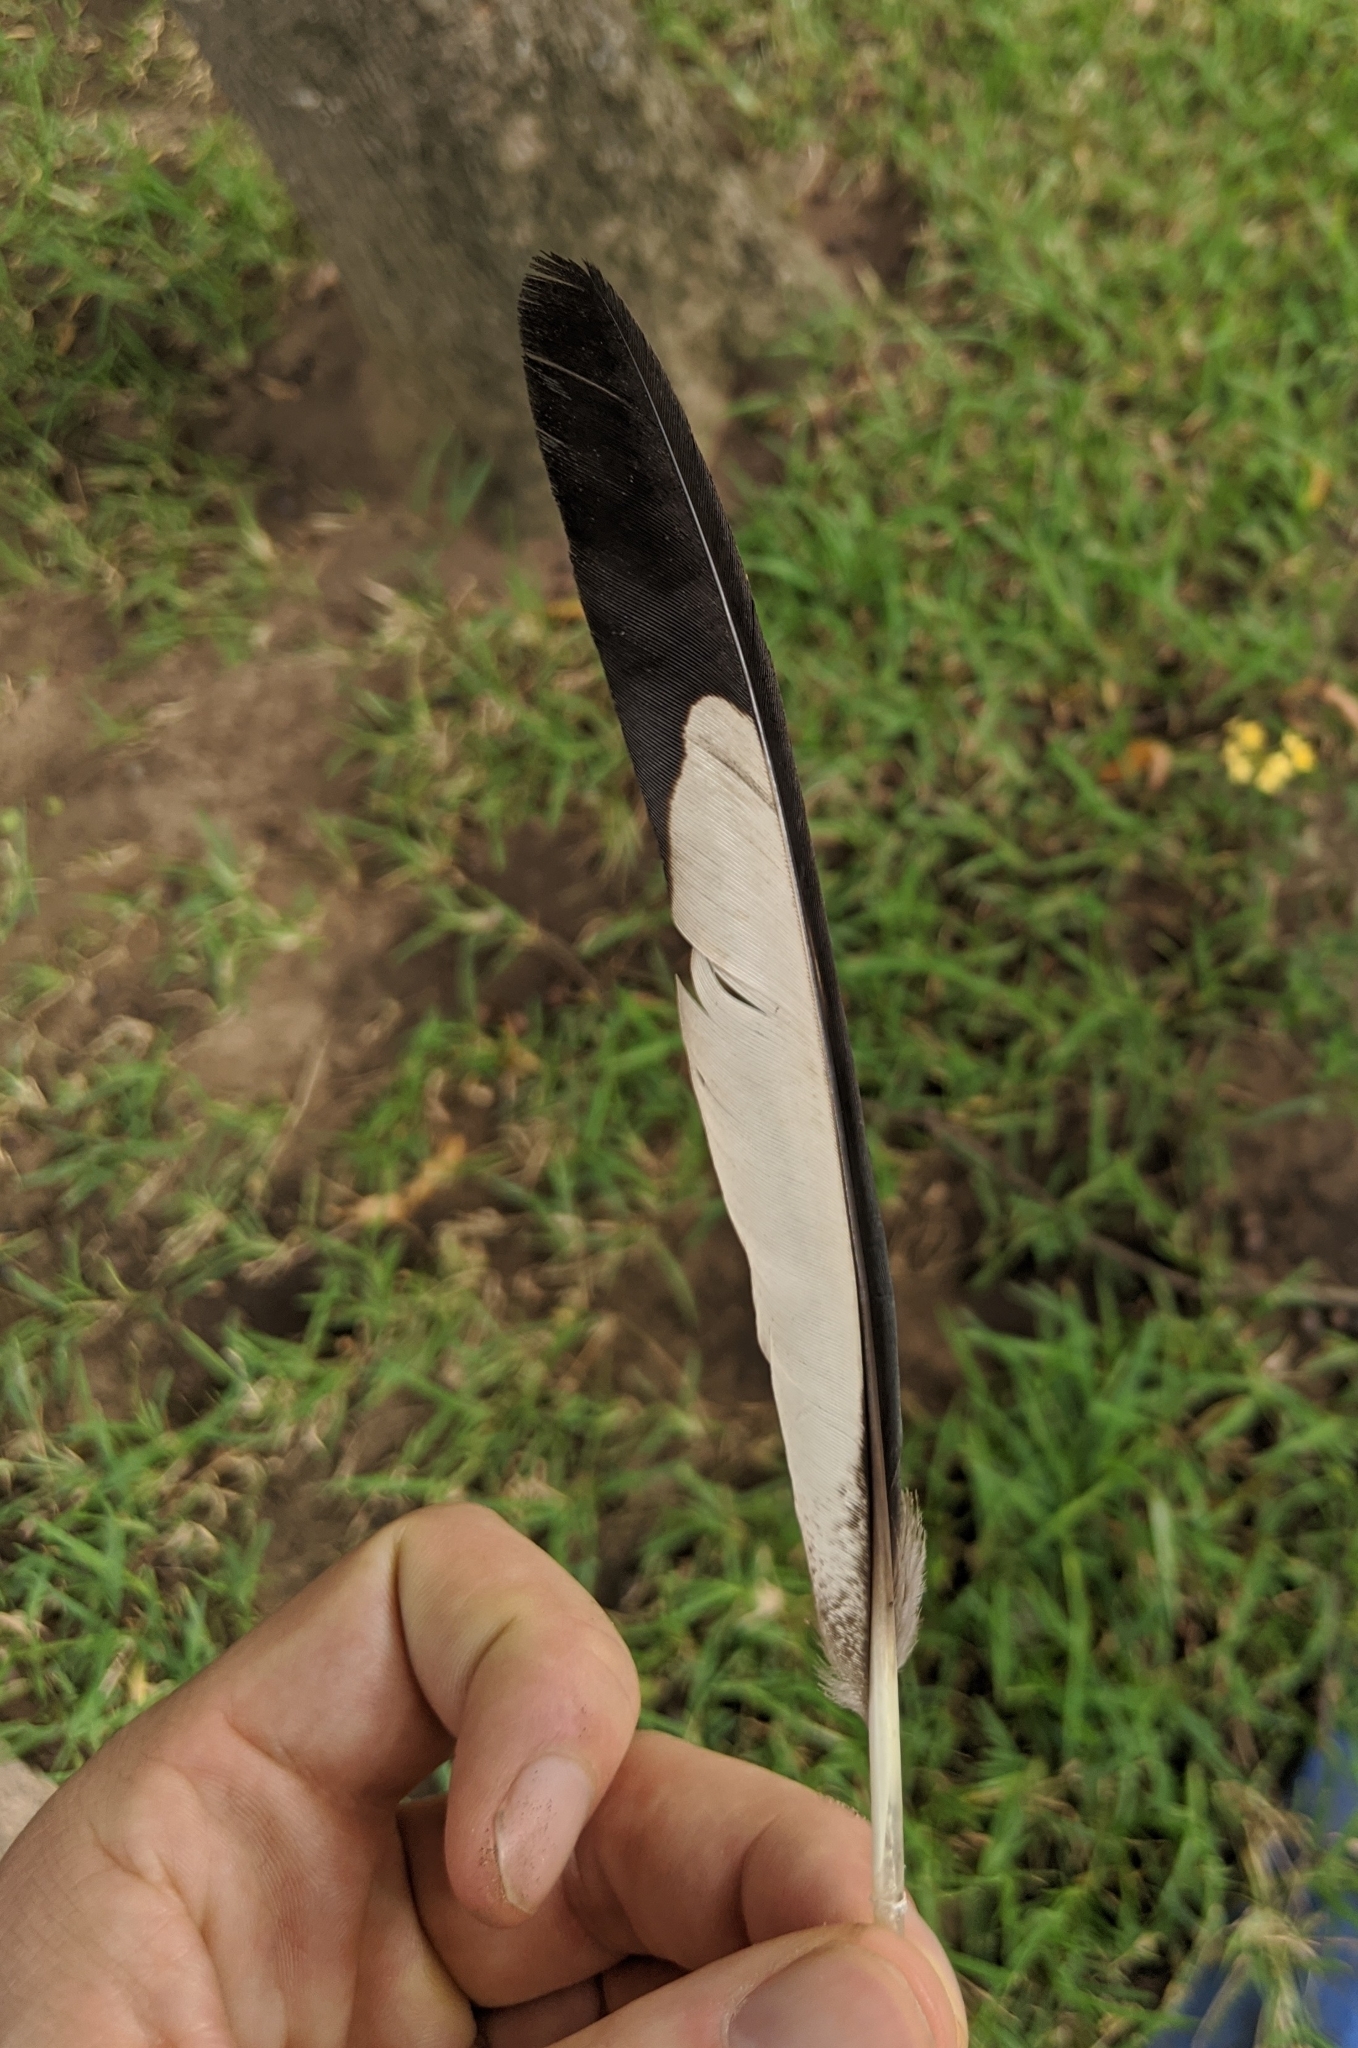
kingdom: Animalia
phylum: Chordata
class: Aves
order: Musophagiformes
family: Musophagidae
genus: Crinifer
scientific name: Crinifer piscator
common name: Western plantain-eater
